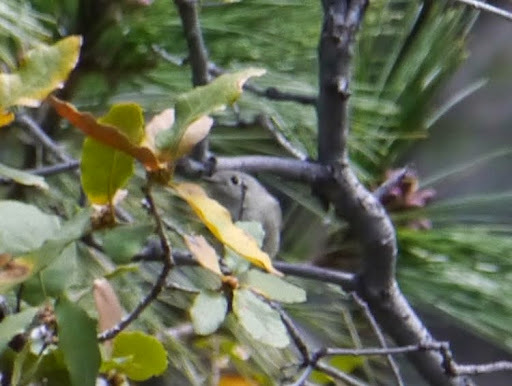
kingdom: Animalia
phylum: Chordata
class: Aves
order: Passeriformes
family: Regulidae
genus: Regulus
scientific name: Regulus calendula
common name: Ruby-crowned kinglet
